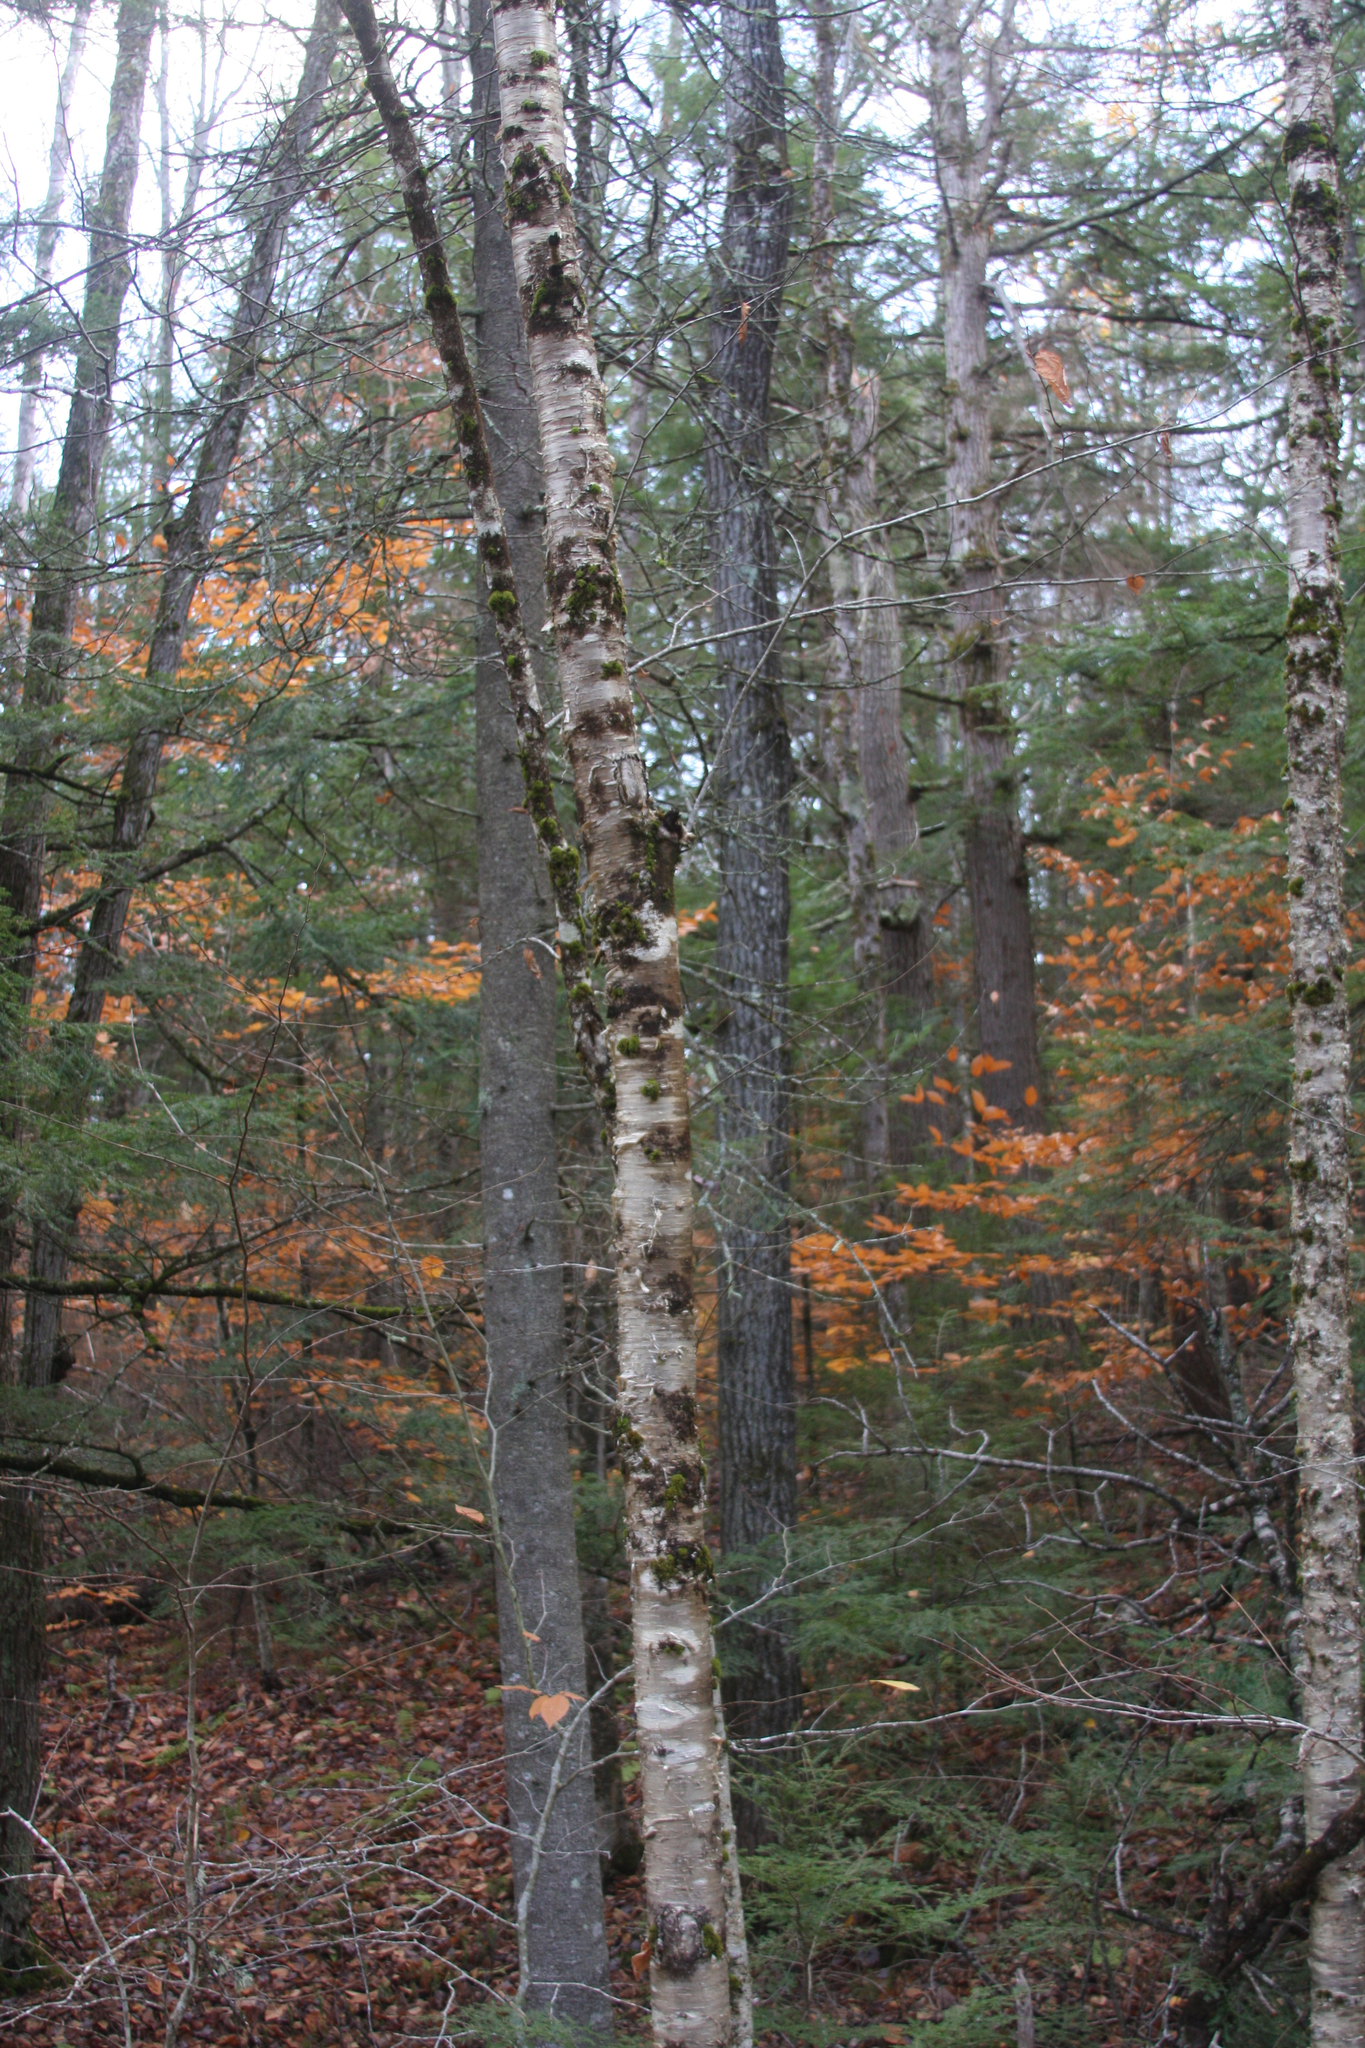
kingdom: Plantae
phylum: Tracheophyta
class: Magnoliopsida
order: Fagales
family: Betulaceae
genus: Betula
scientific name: Betula alleghaniensis
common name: Yellow birch
